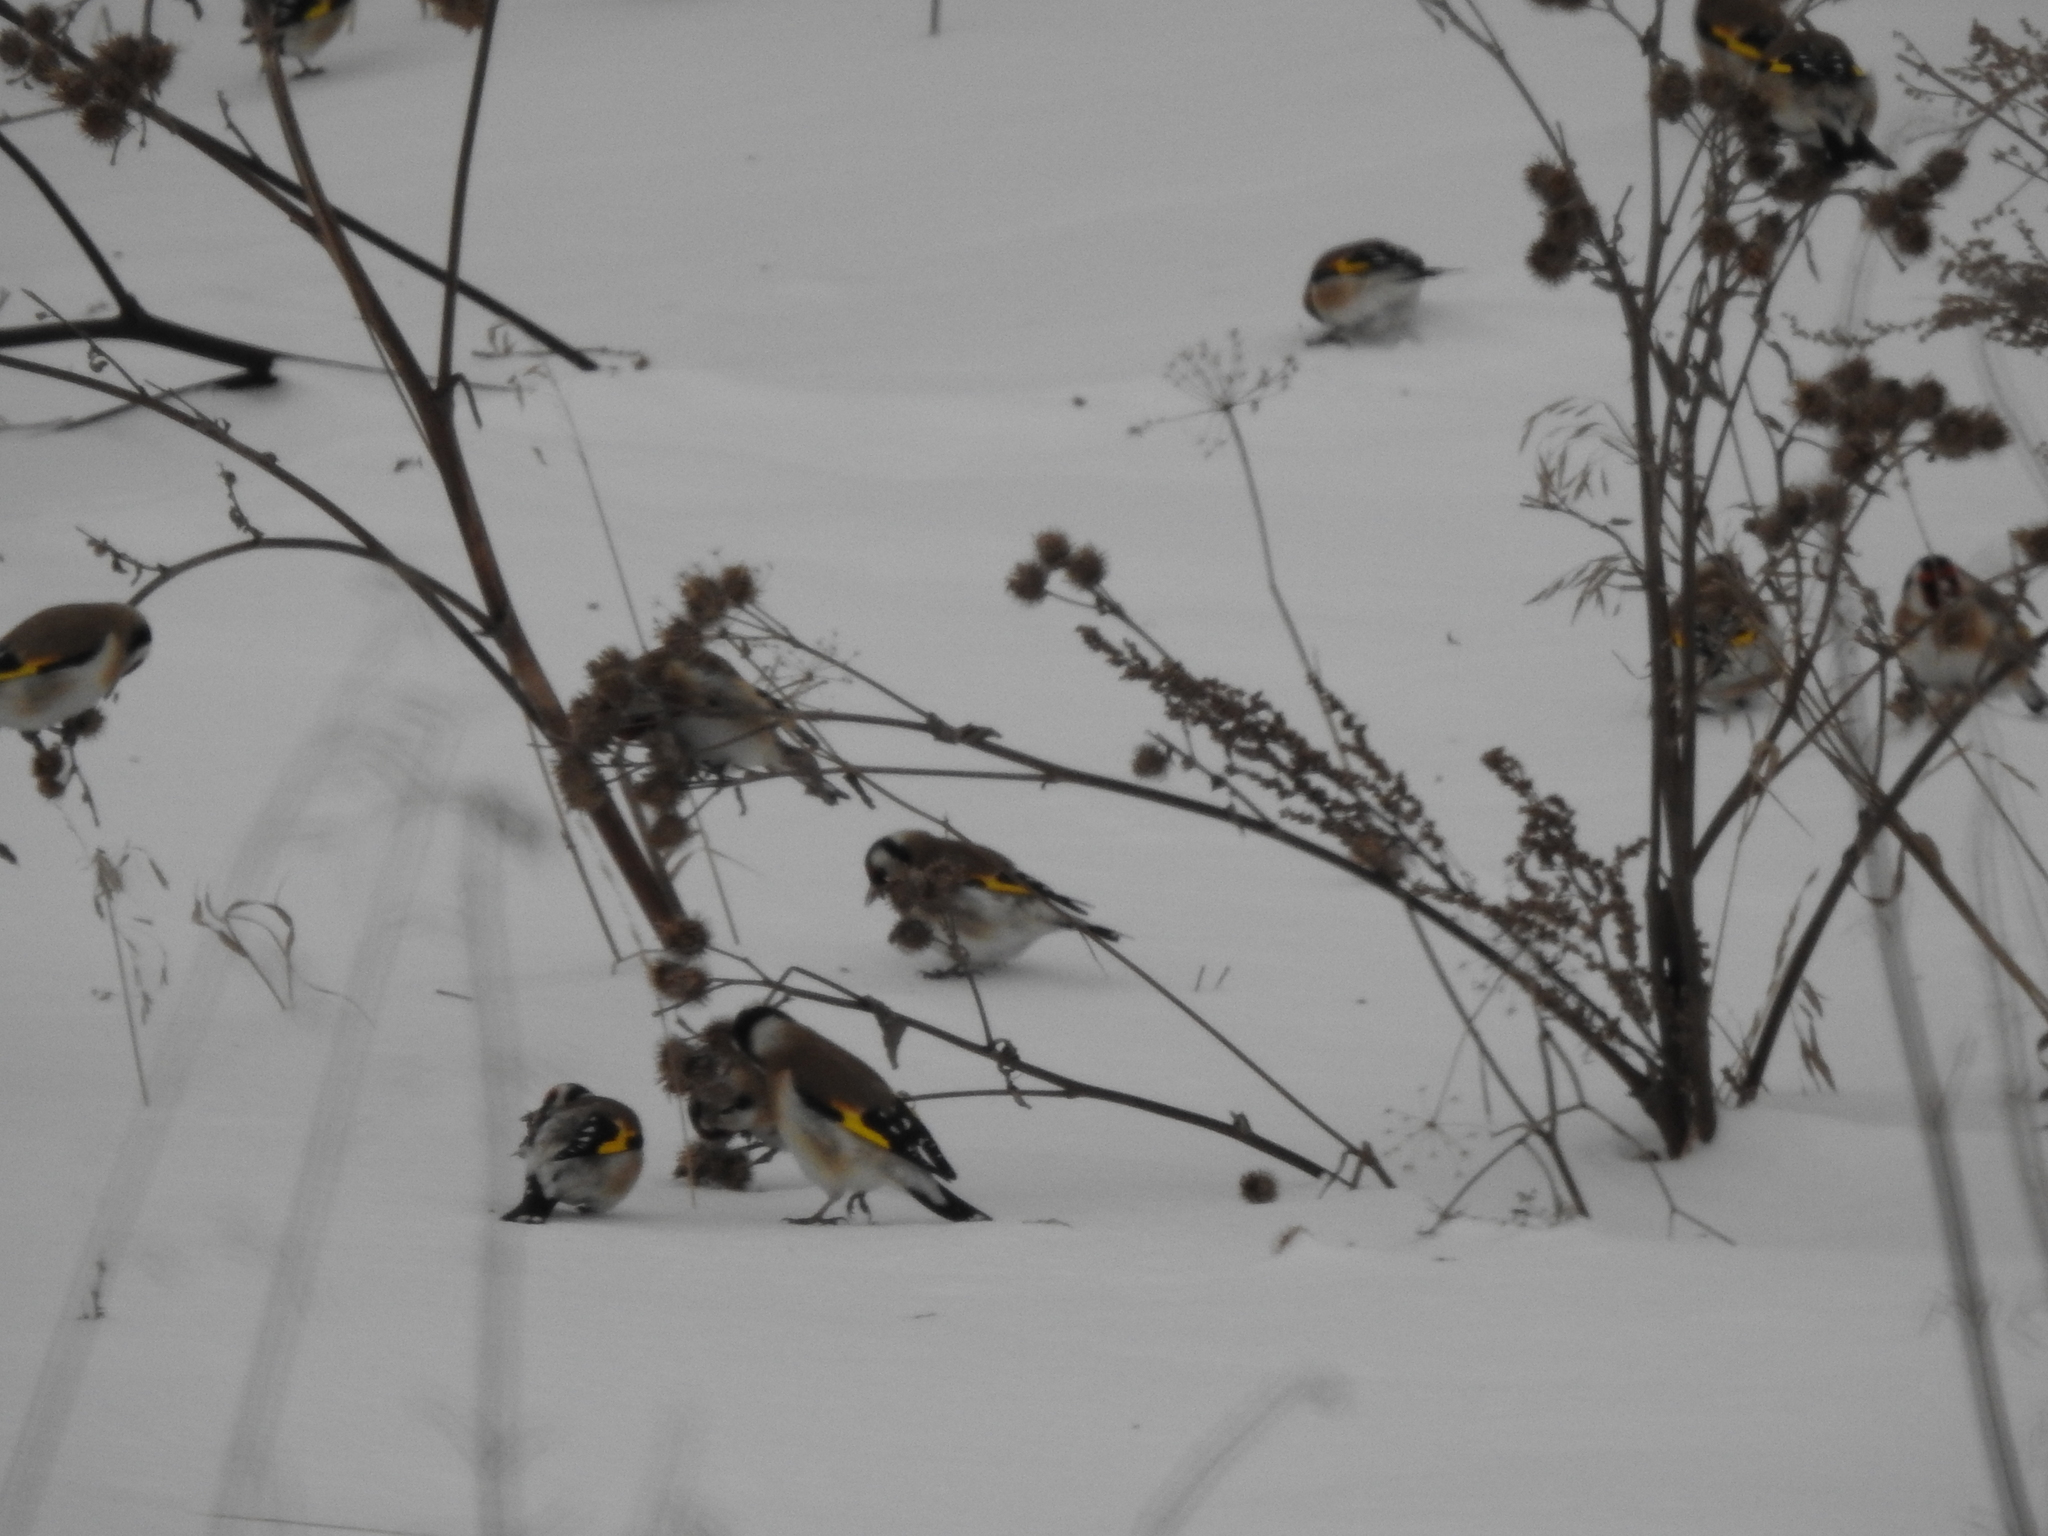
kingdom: Animalia
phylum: Chordata
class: Aves
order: Passeriformes
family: Fringillidae
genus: Carduelis
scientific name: Carduelis carduelis
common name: European goldfinch
